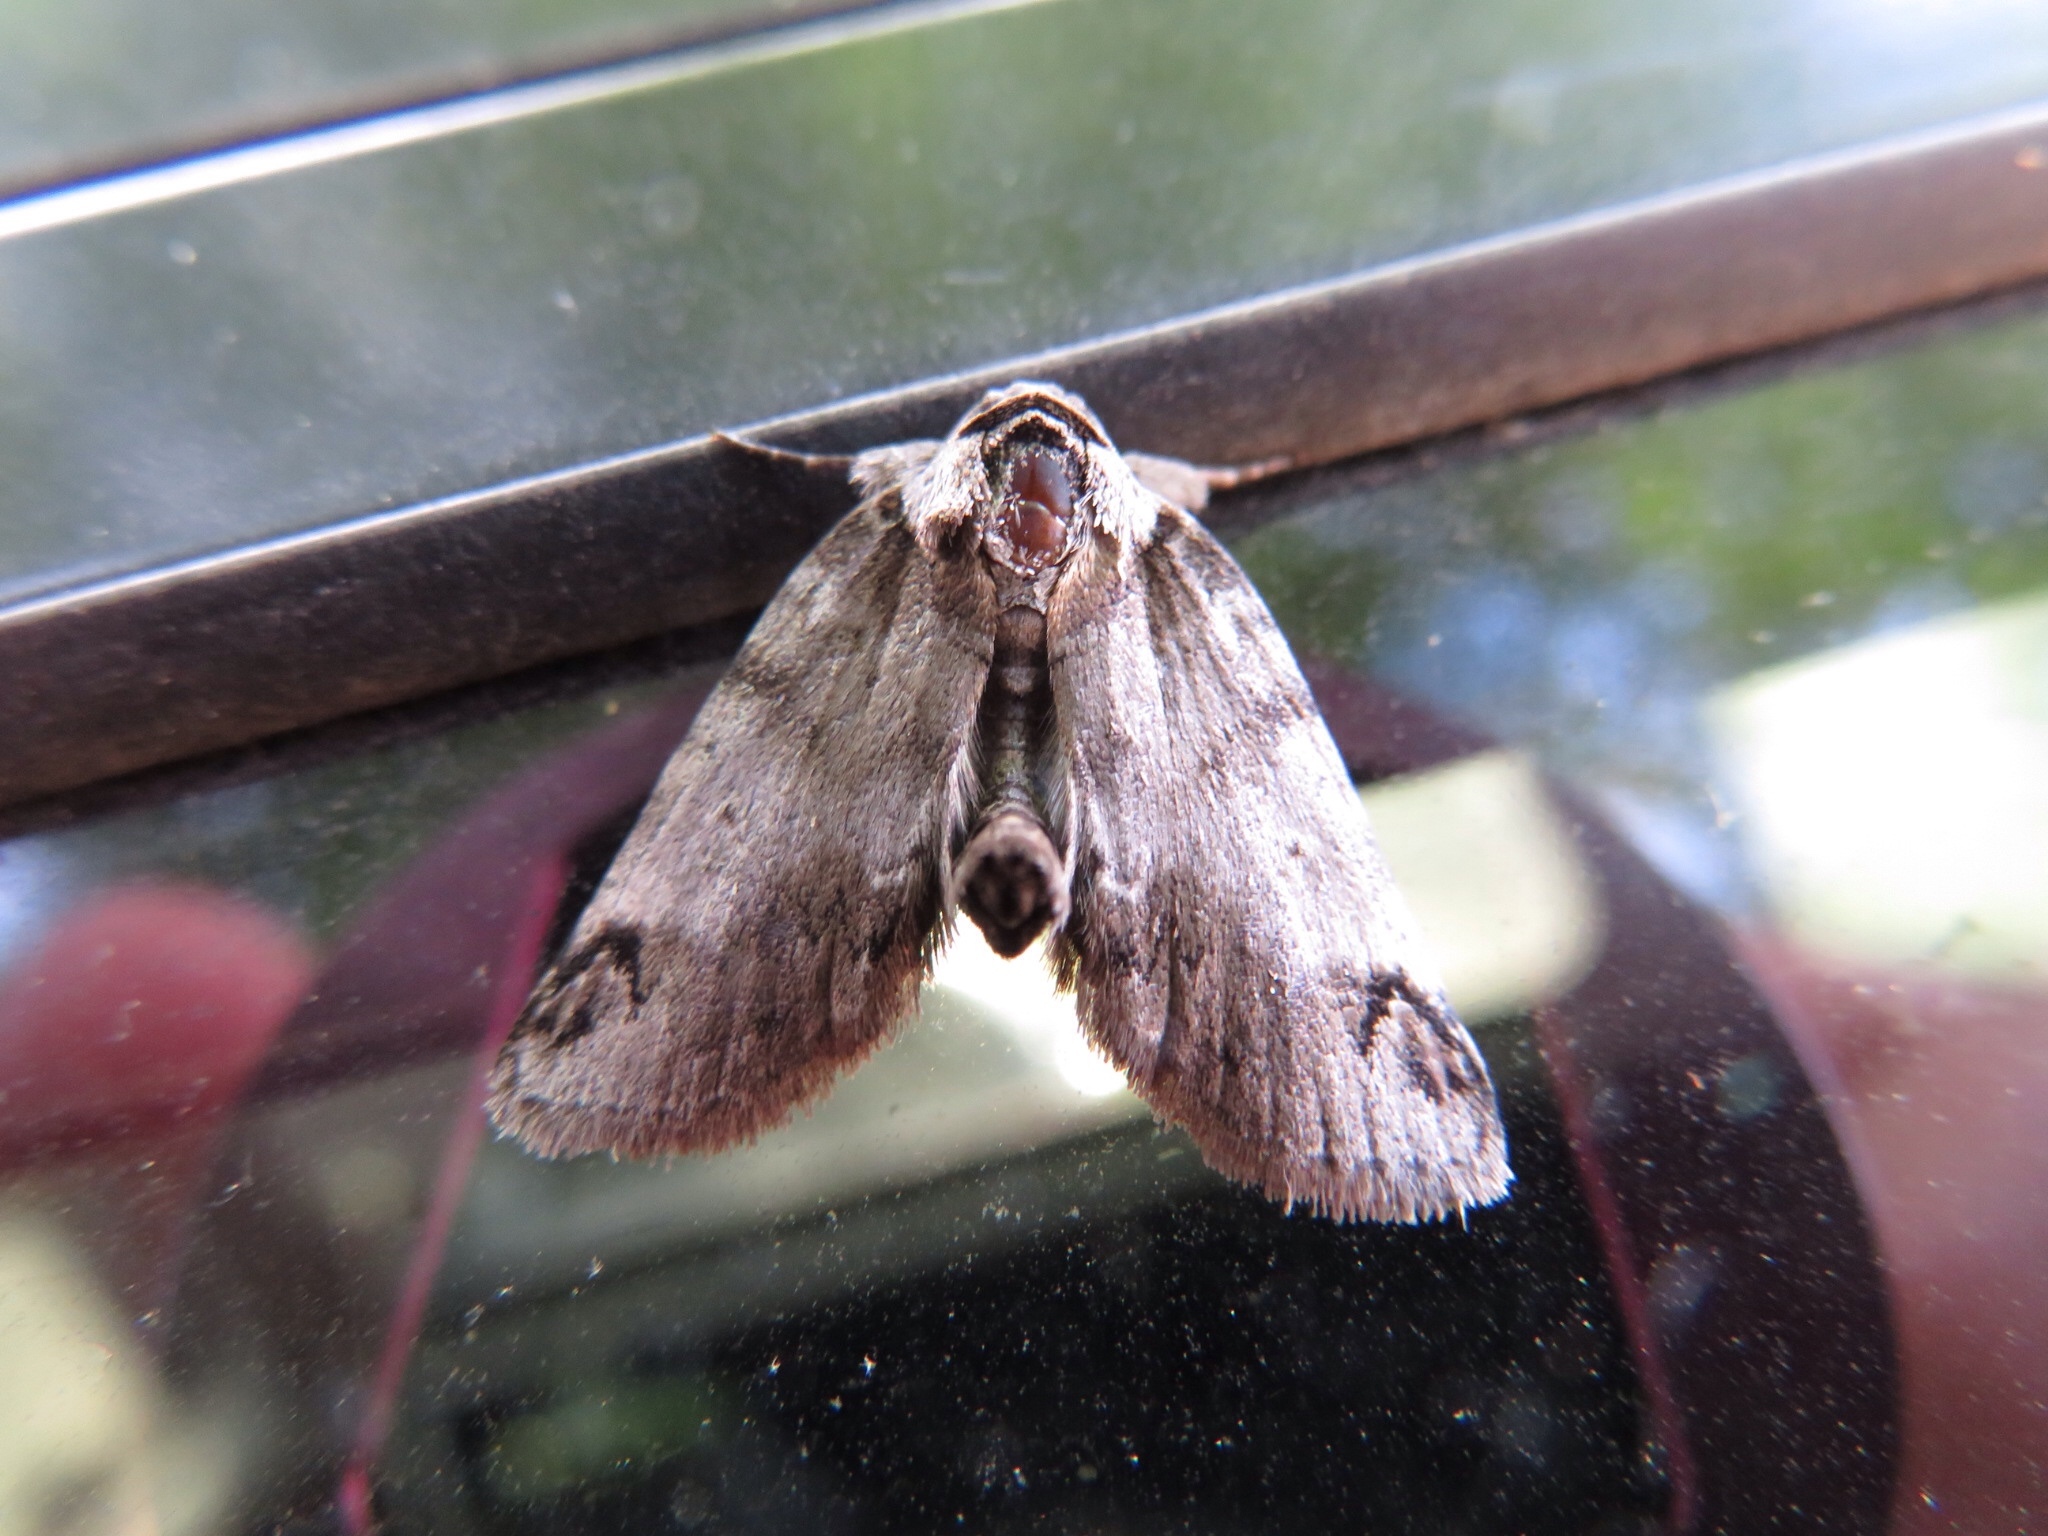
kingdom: Animalia
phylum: Arthropoda
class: Insecta
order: Lepidoptera
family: Nolidae
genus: Baileya
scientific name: Baileya dormitans
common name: Sleeping baileya moth
